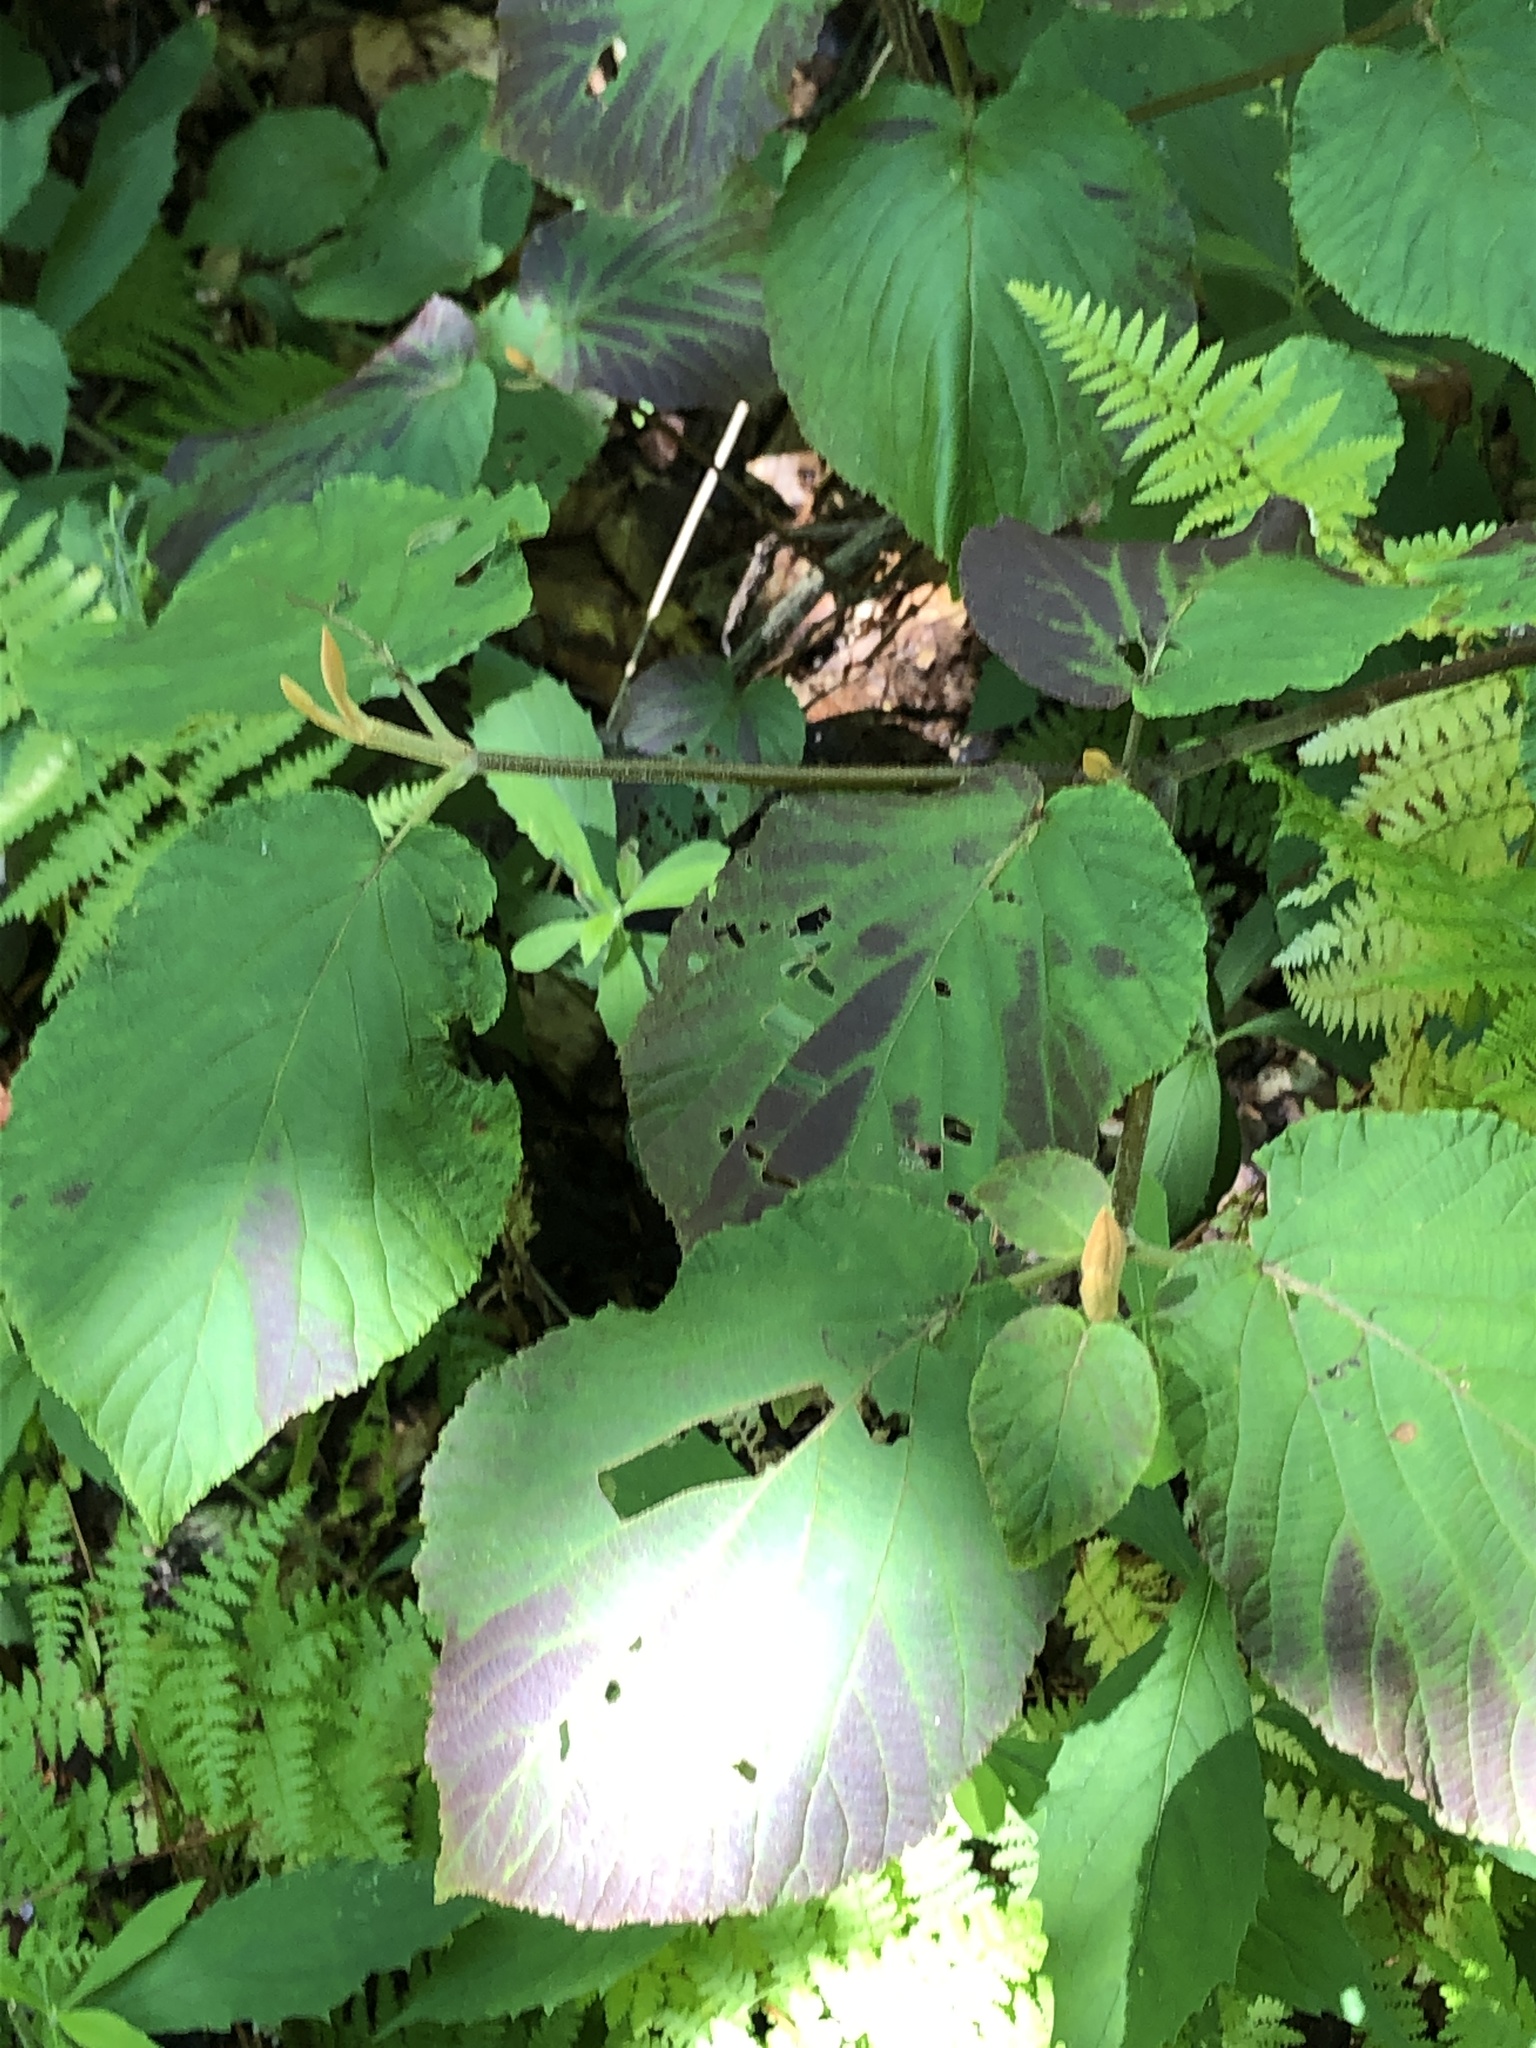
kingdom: Plantae
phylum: Tracheophyta
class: Magnoliopsida
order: Dipsacales
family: Viburnaceae
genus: Viburnum
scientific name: Viburnum lantanoides
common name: Hobblebush
